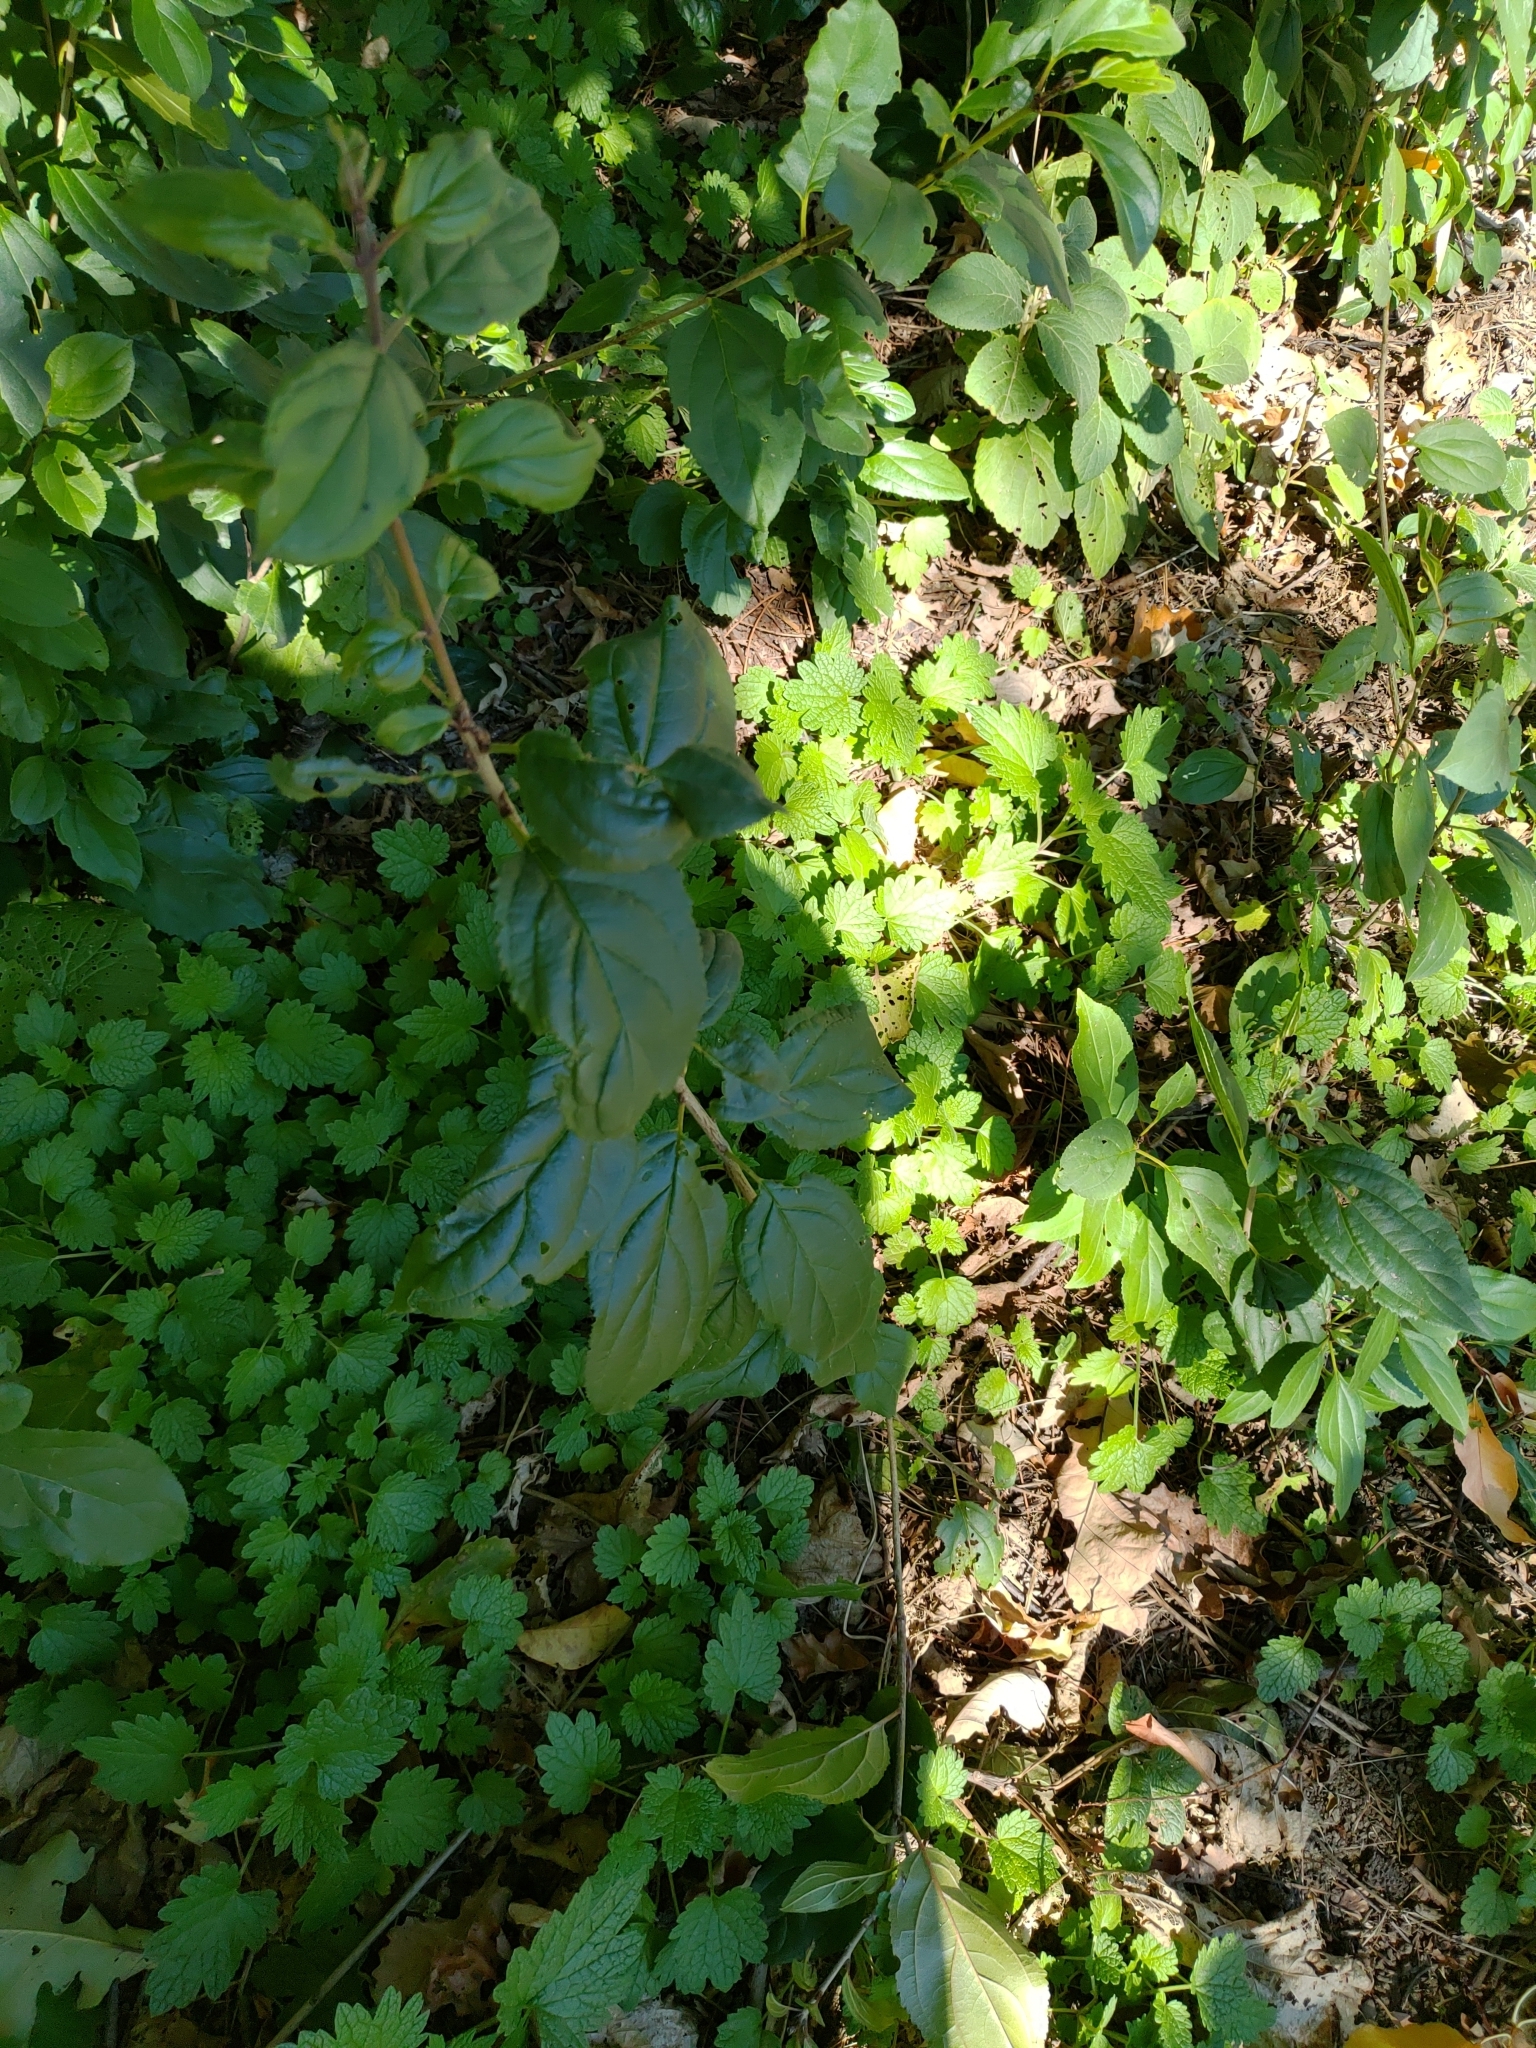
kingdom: Plantae
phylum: Tracheophyta
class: Magnoliopsida
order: Rosales
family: Rhamnaceae
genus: Rhamnus
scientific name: Rhamnus cathartica
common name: Common buckthorn
